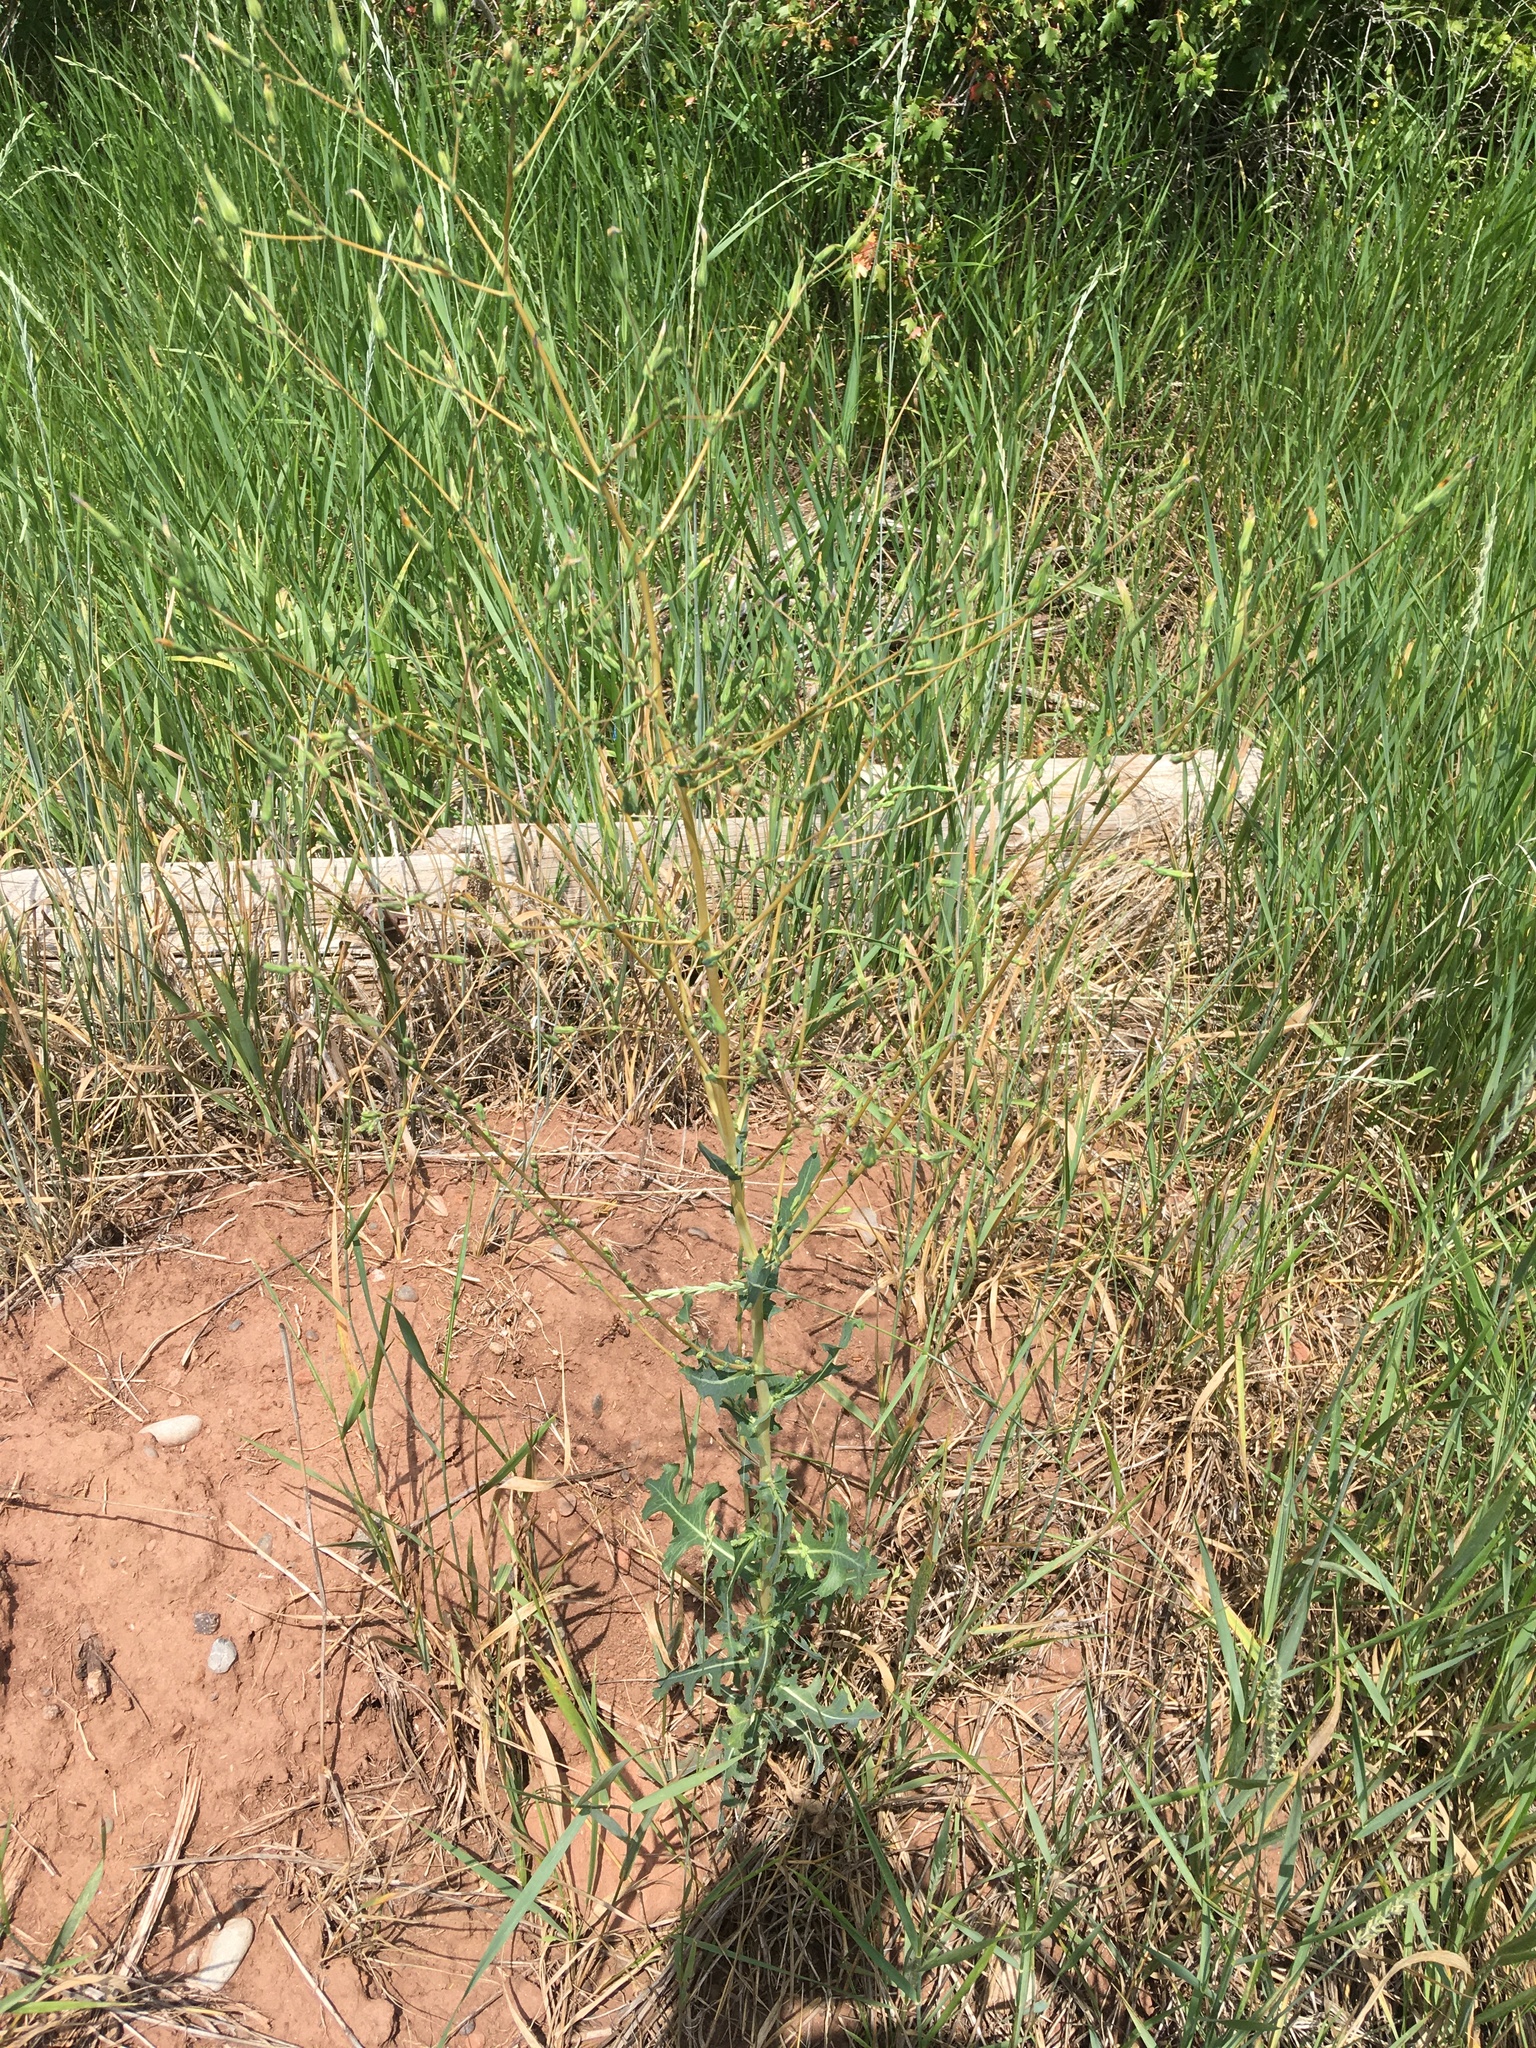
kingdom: Plantae
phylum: Tracheophyta
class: Magnoliopsida
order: Asterales
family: Asteraceae
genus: Lactuca
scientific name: Lactuca serriola
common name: Prickly lettuce
